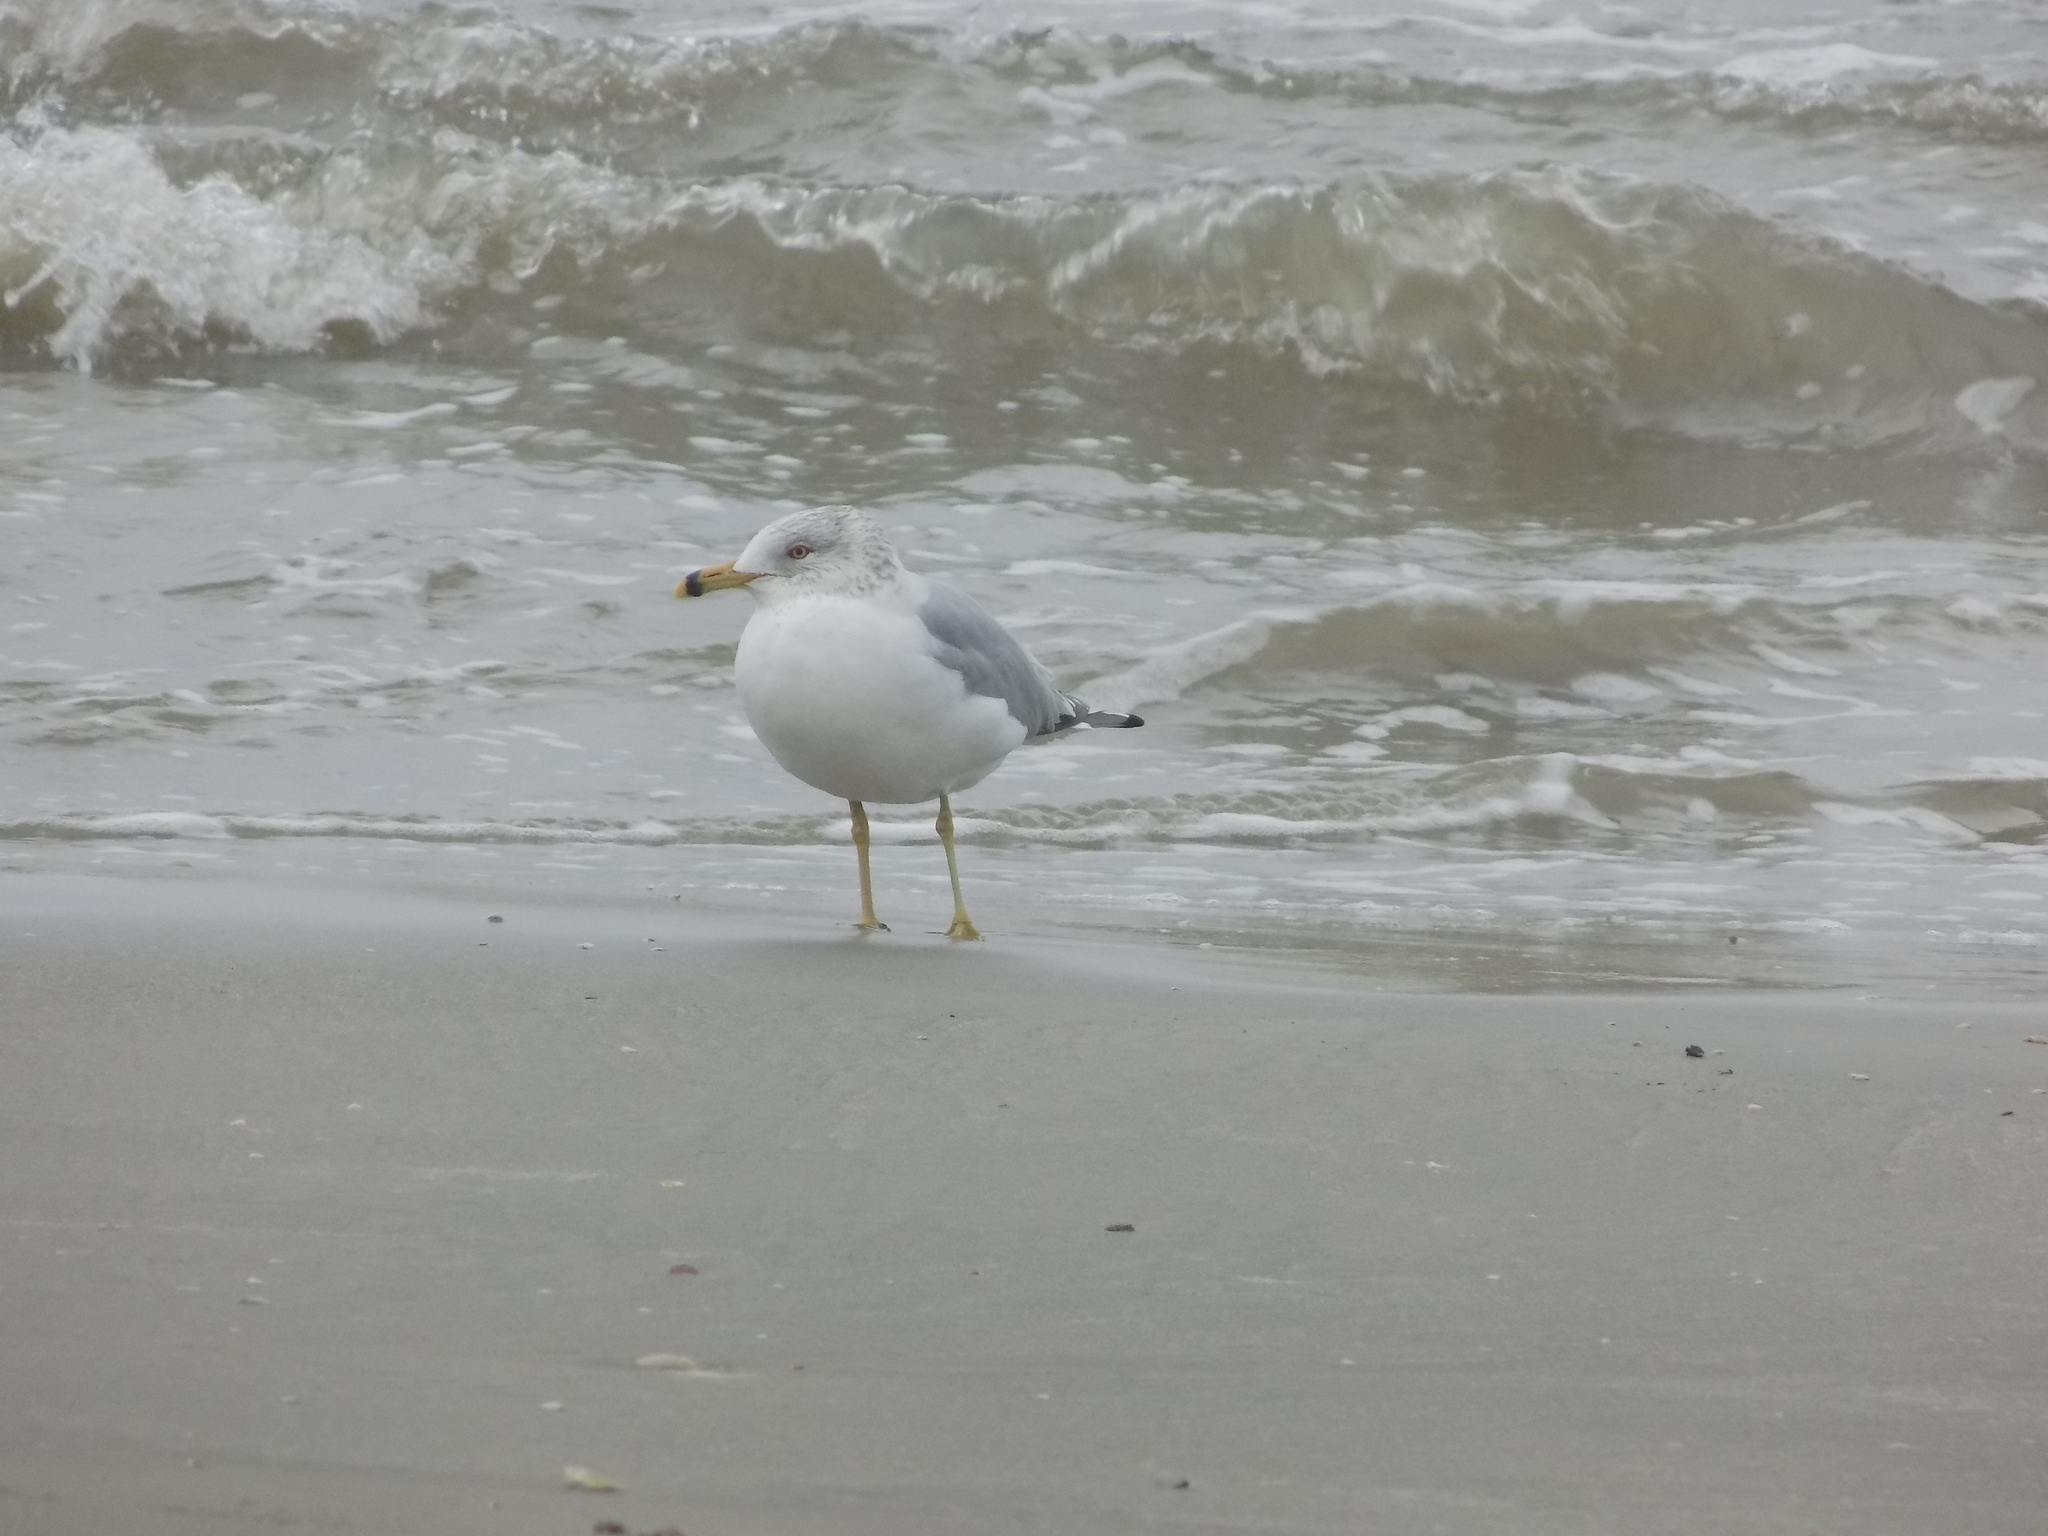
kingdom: Animalia
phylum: Chordata
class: Aves
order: Charadriiformes
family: Laridae
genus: Larus
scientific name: Larus delawarensis
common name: Ring-billed gull
